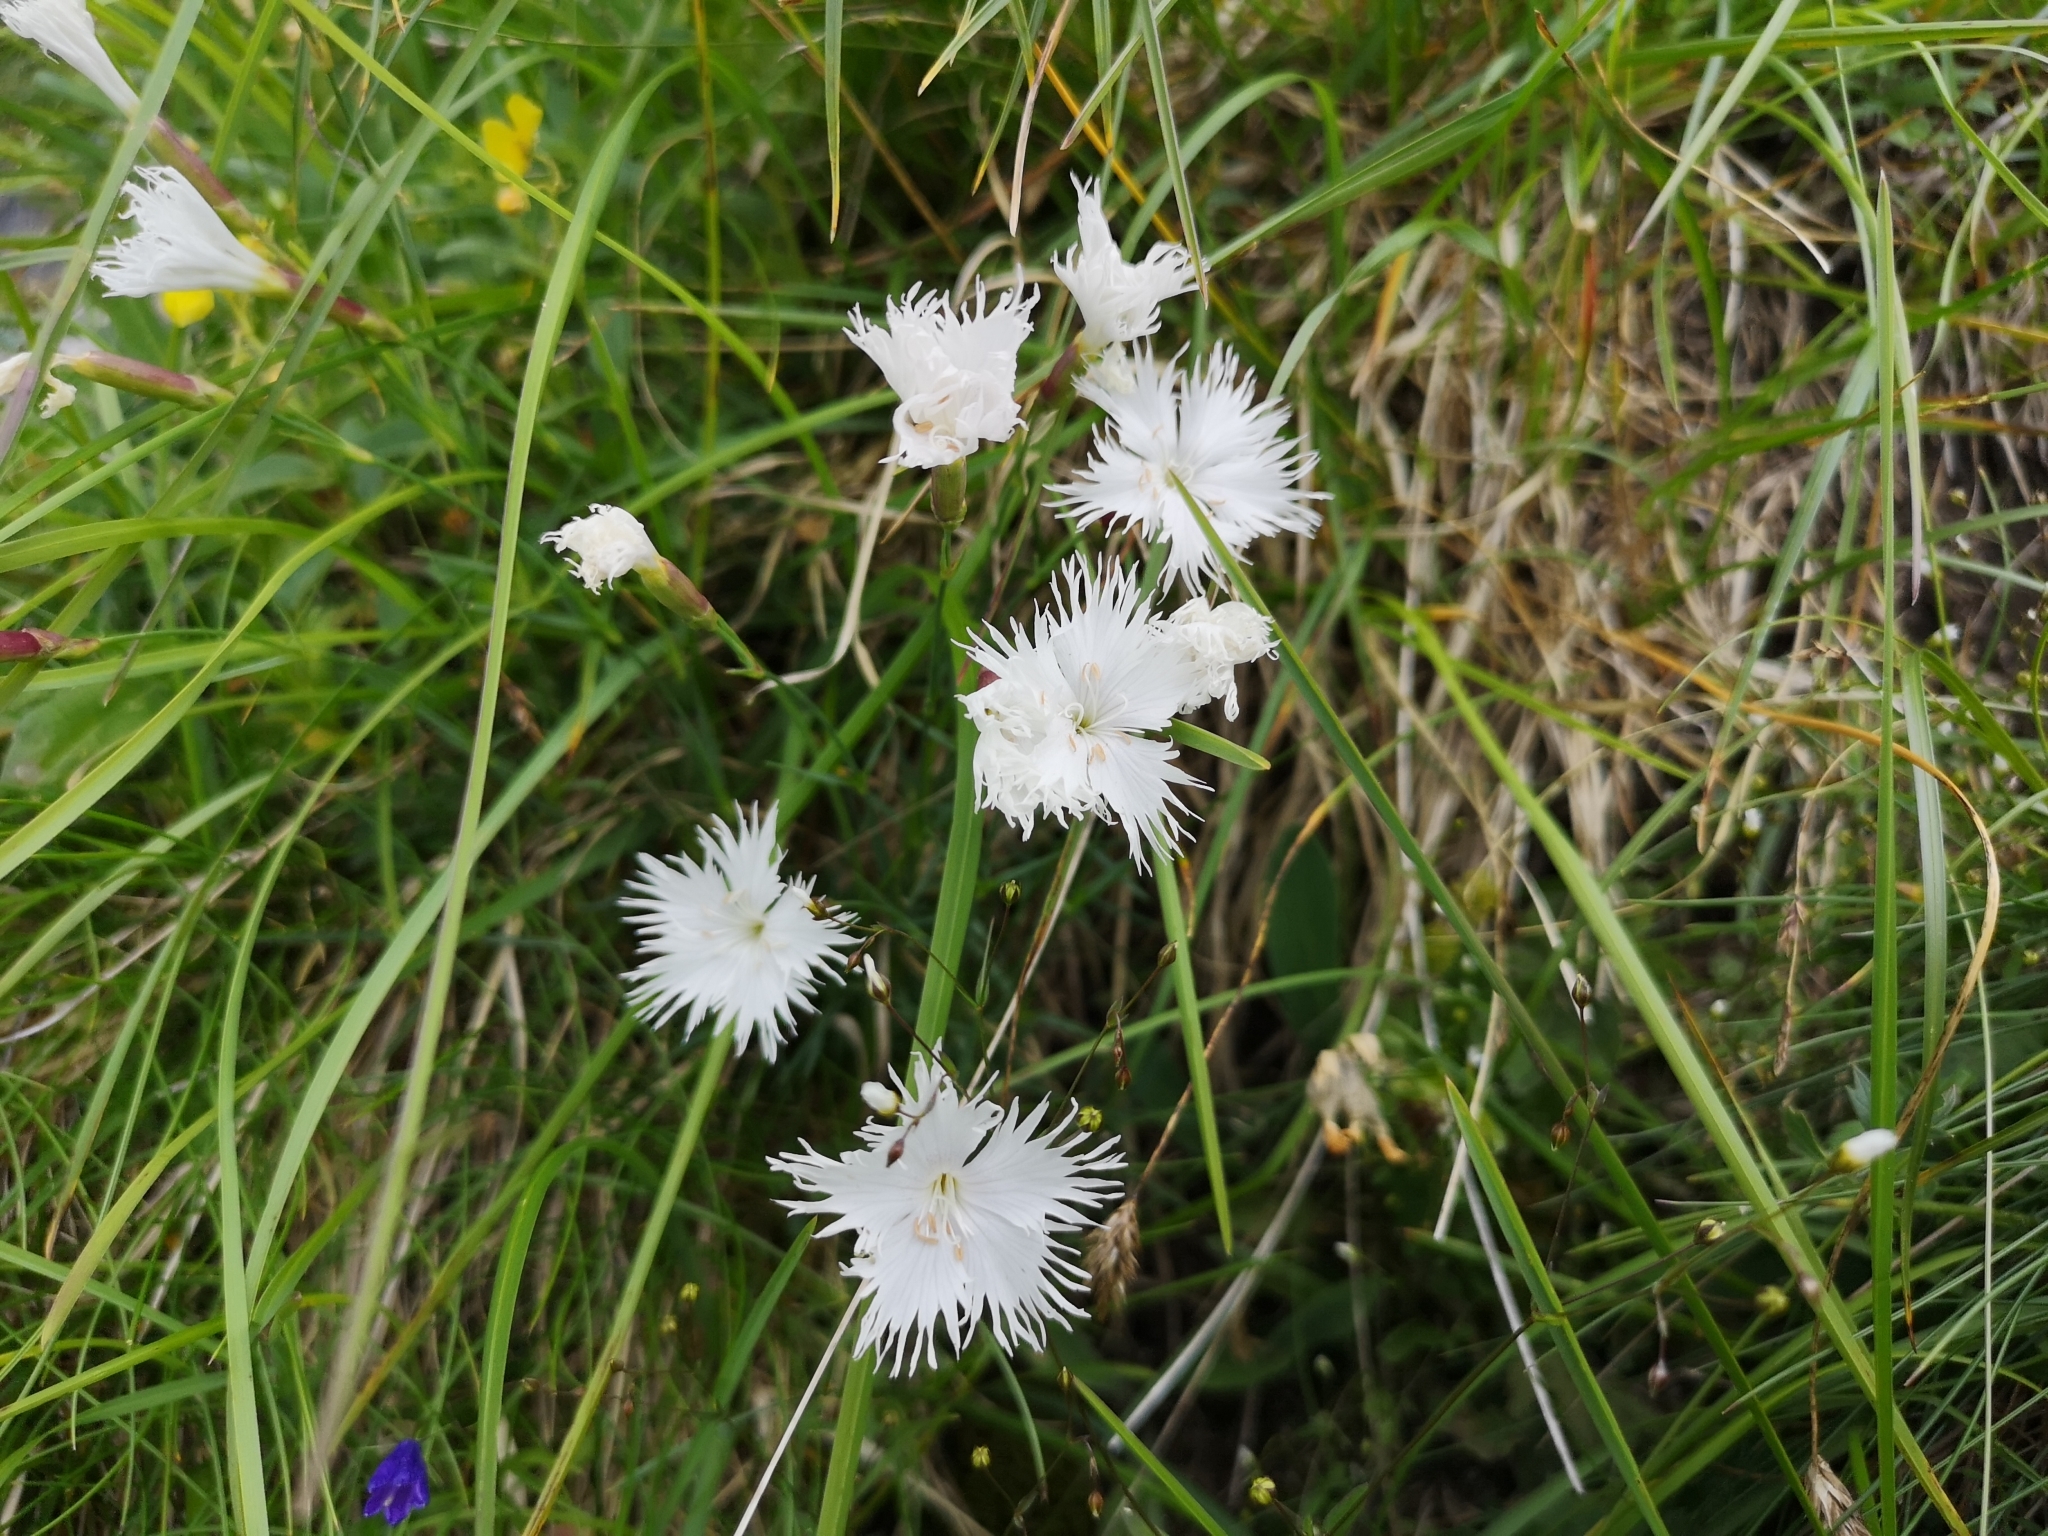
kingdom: Plantae
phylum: Tracheophyta
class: Magnoliopsida
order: Caryophyllales
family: Caryophyllaceae
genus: Dianthus
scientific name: Dianthus
